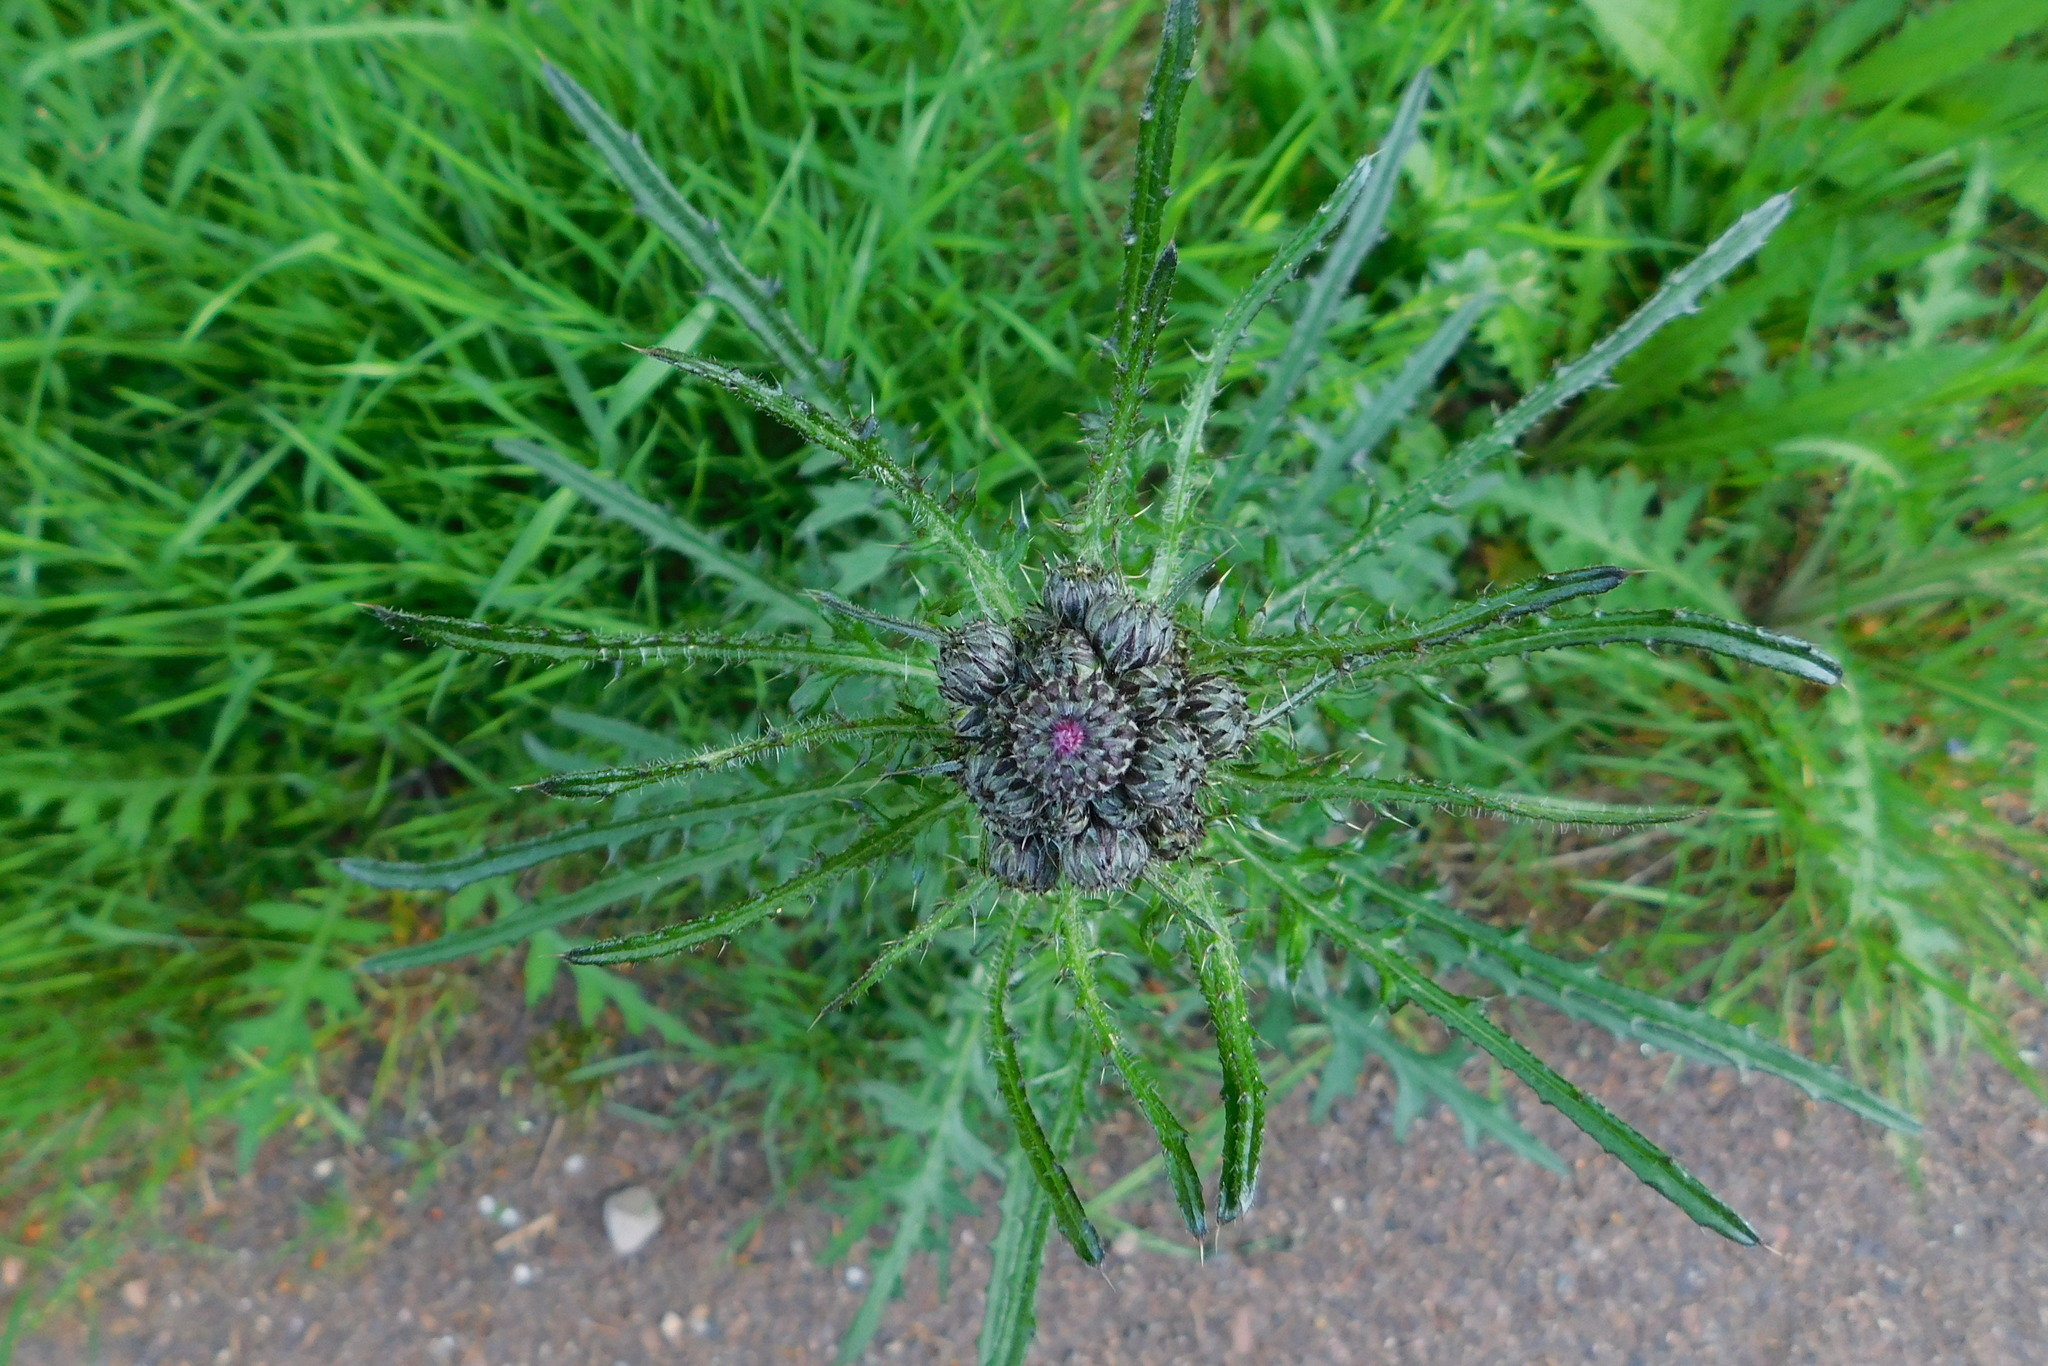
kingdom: Plantae
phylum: Tracheophyta
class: Magnoliopsida
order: Asterales
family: Asteraceae
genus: Cirsium
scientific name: Cirsium palustre
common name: Marsh thistle
